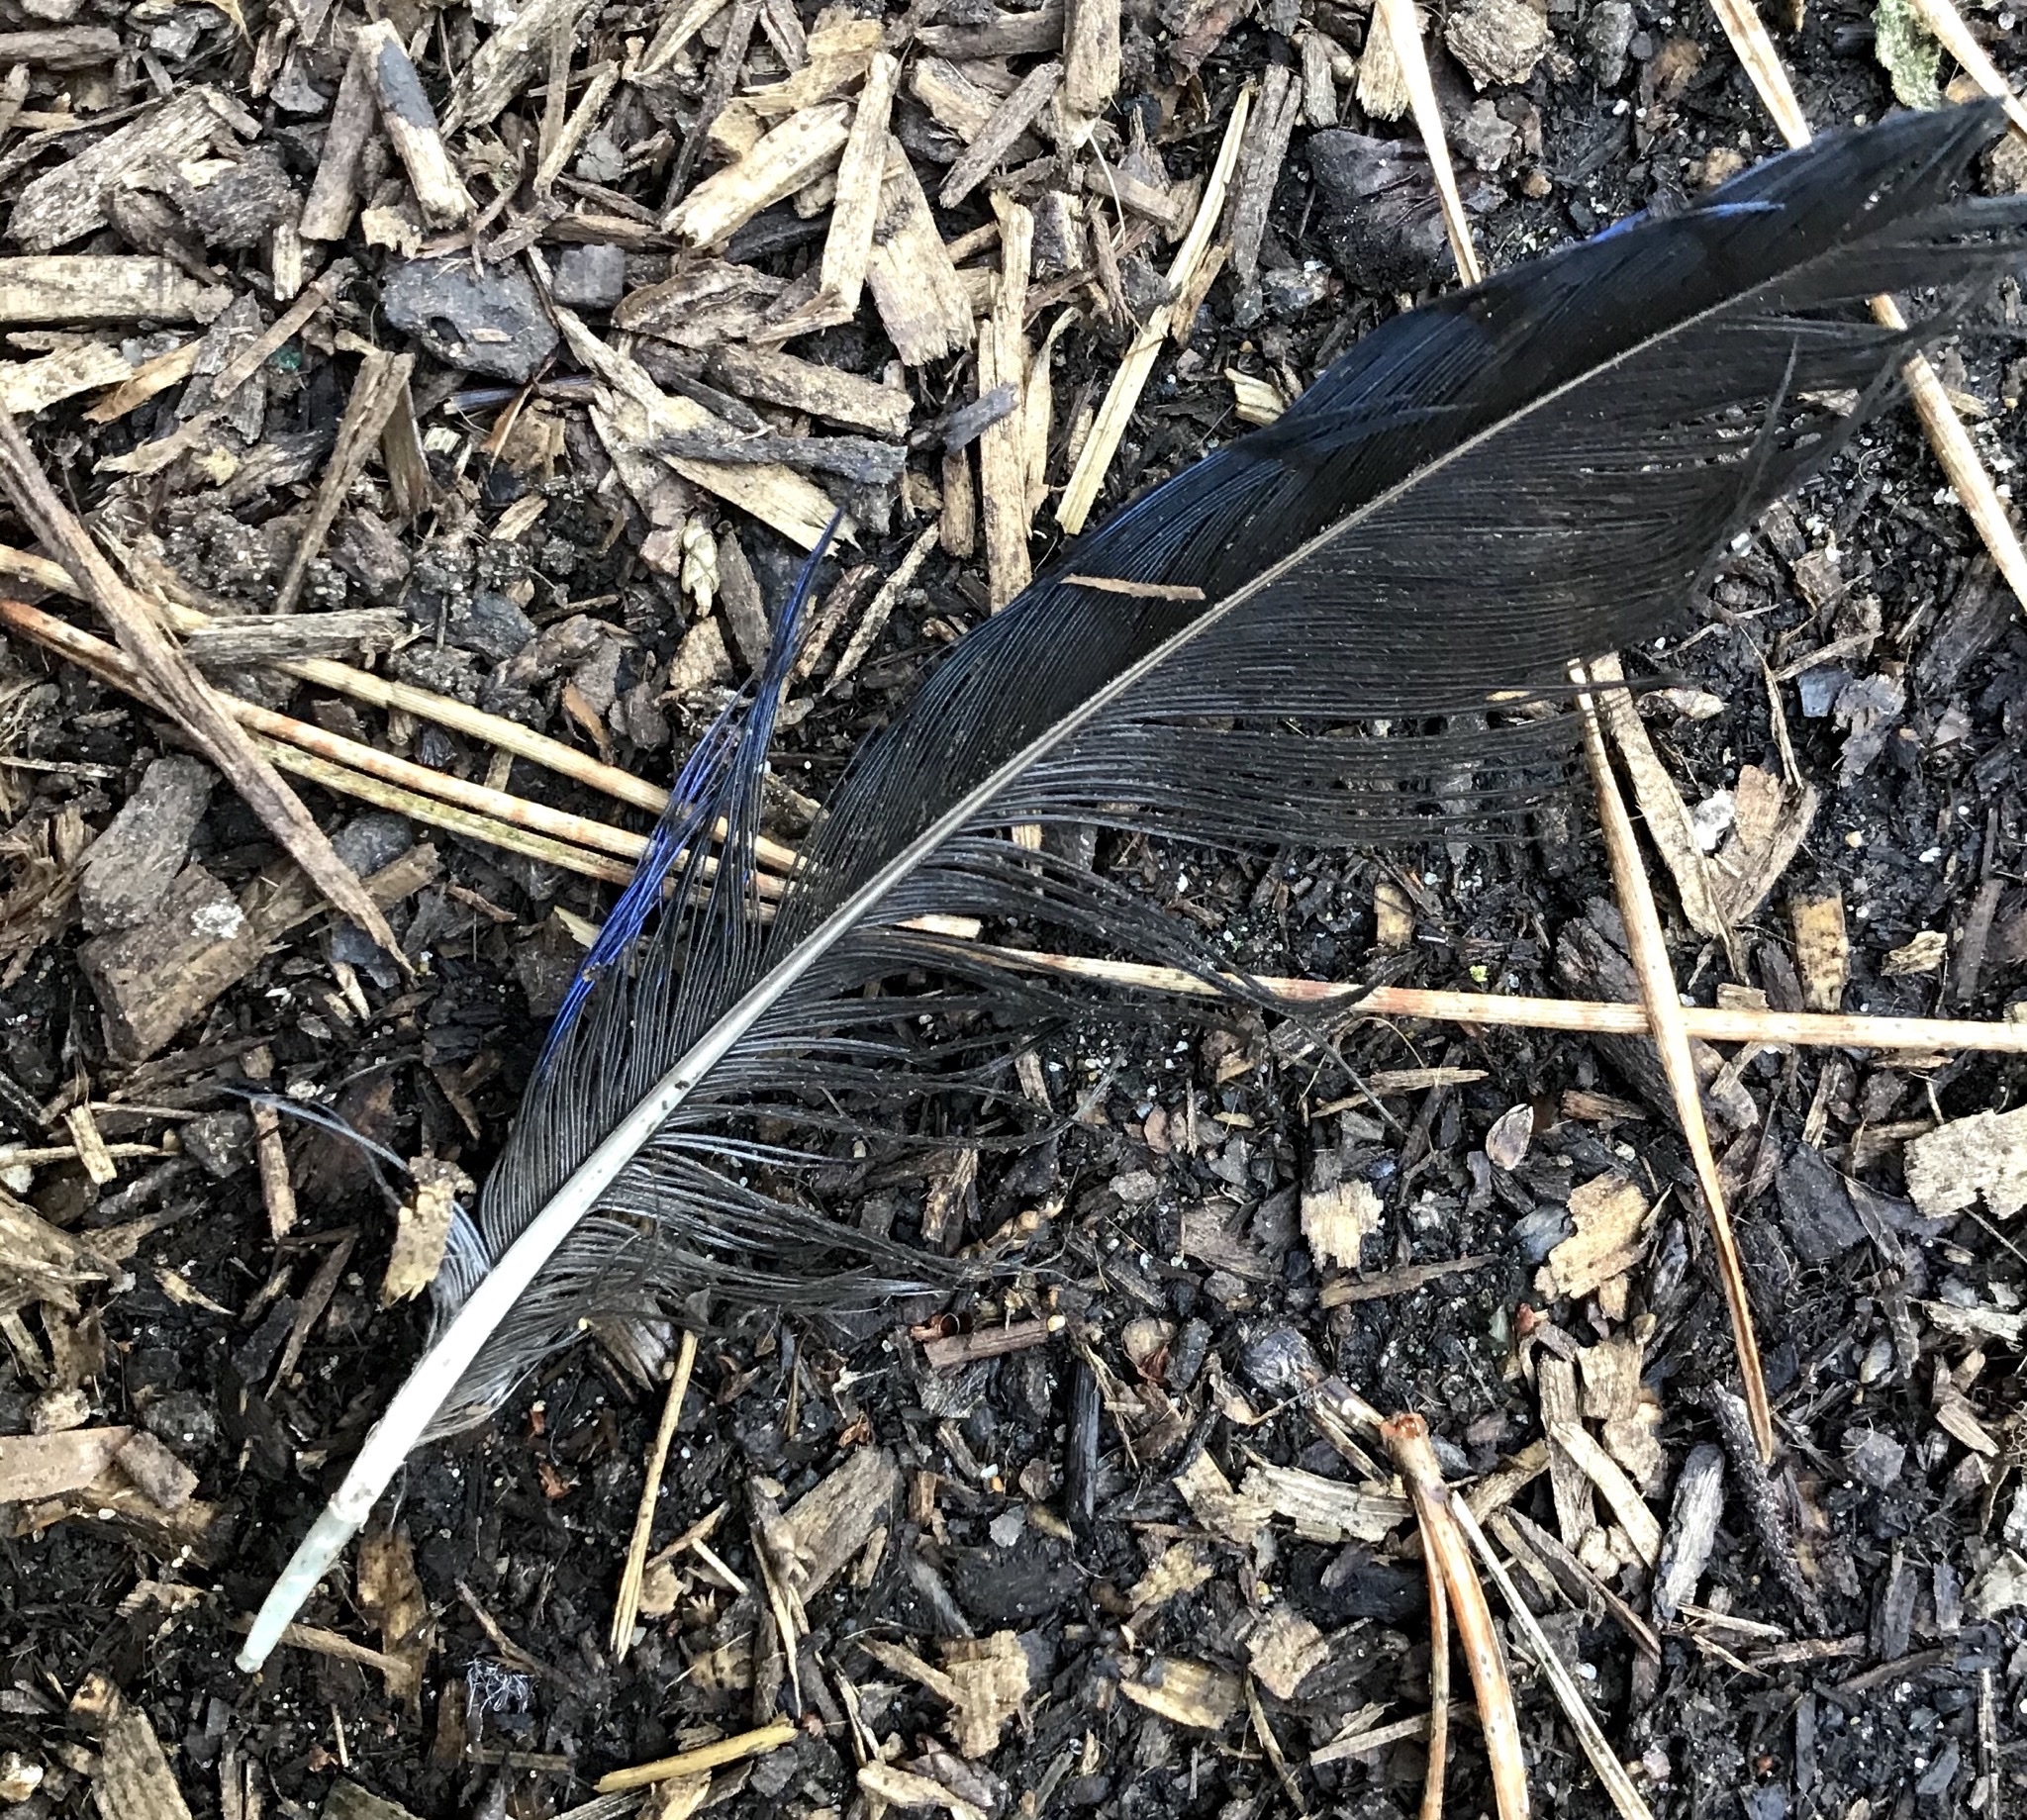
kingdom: Animalia
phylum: Chordata
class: Aves
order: Passeriformes
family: Corvidae
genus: Cyanocitta
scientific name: Cyanocitta stelleri
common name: Steller's jay
